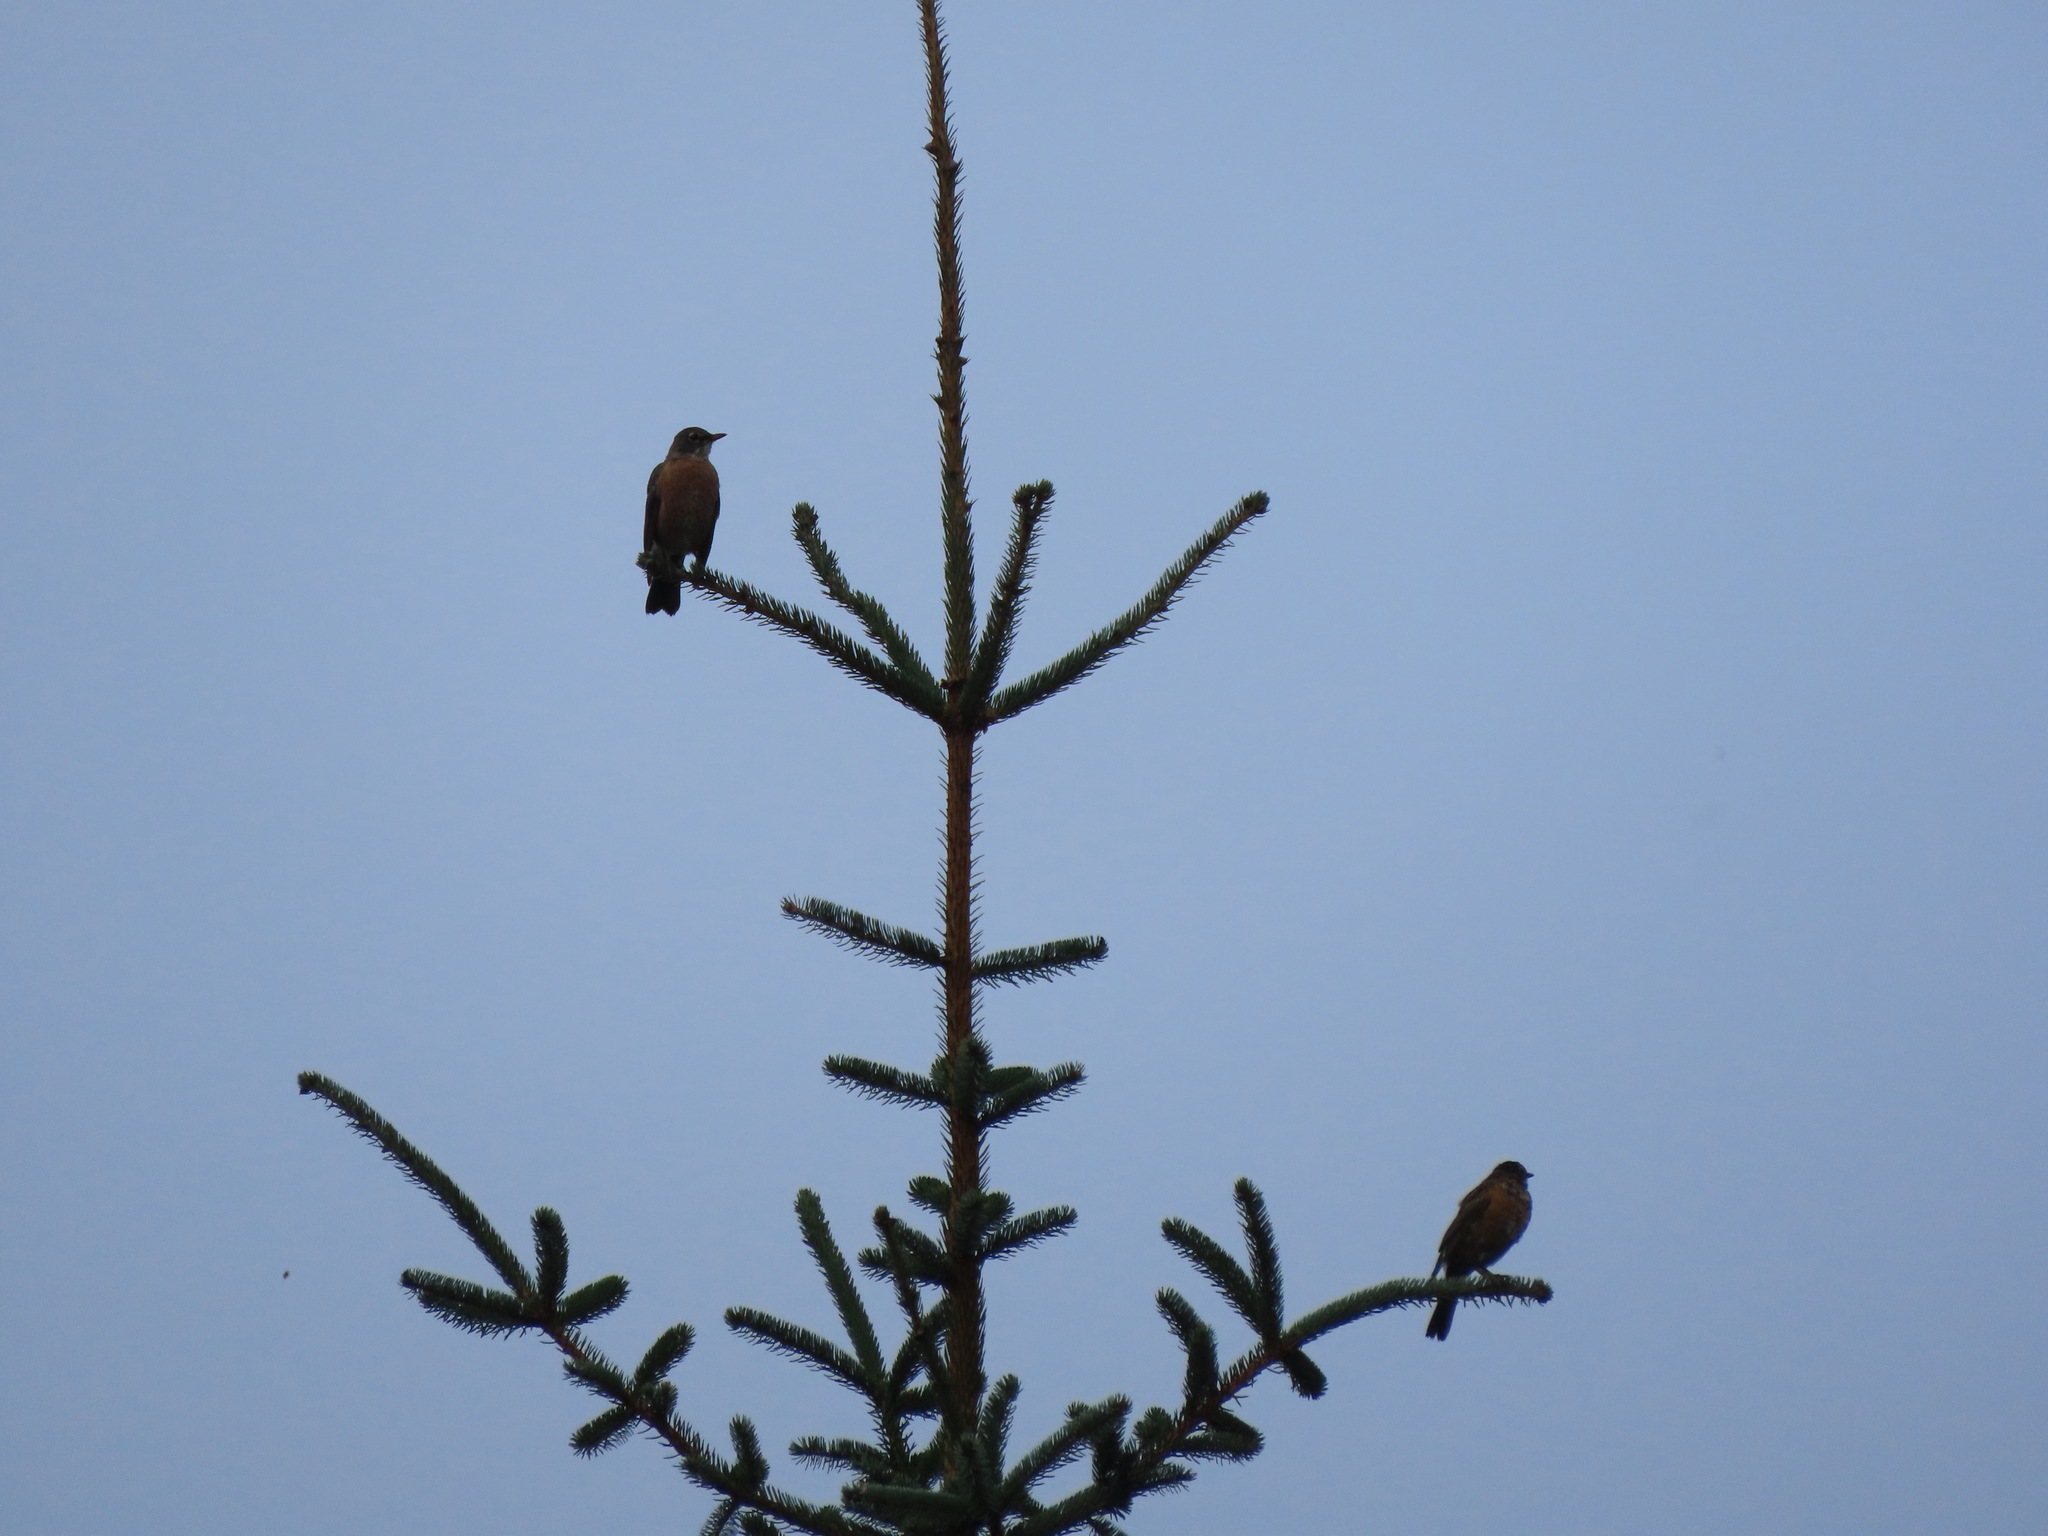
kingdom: Animalia
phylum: Chordata
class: Aves
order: Passeriformes
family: Turdidae
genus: Turdus
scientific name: Turdus migratorius
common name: American robin
